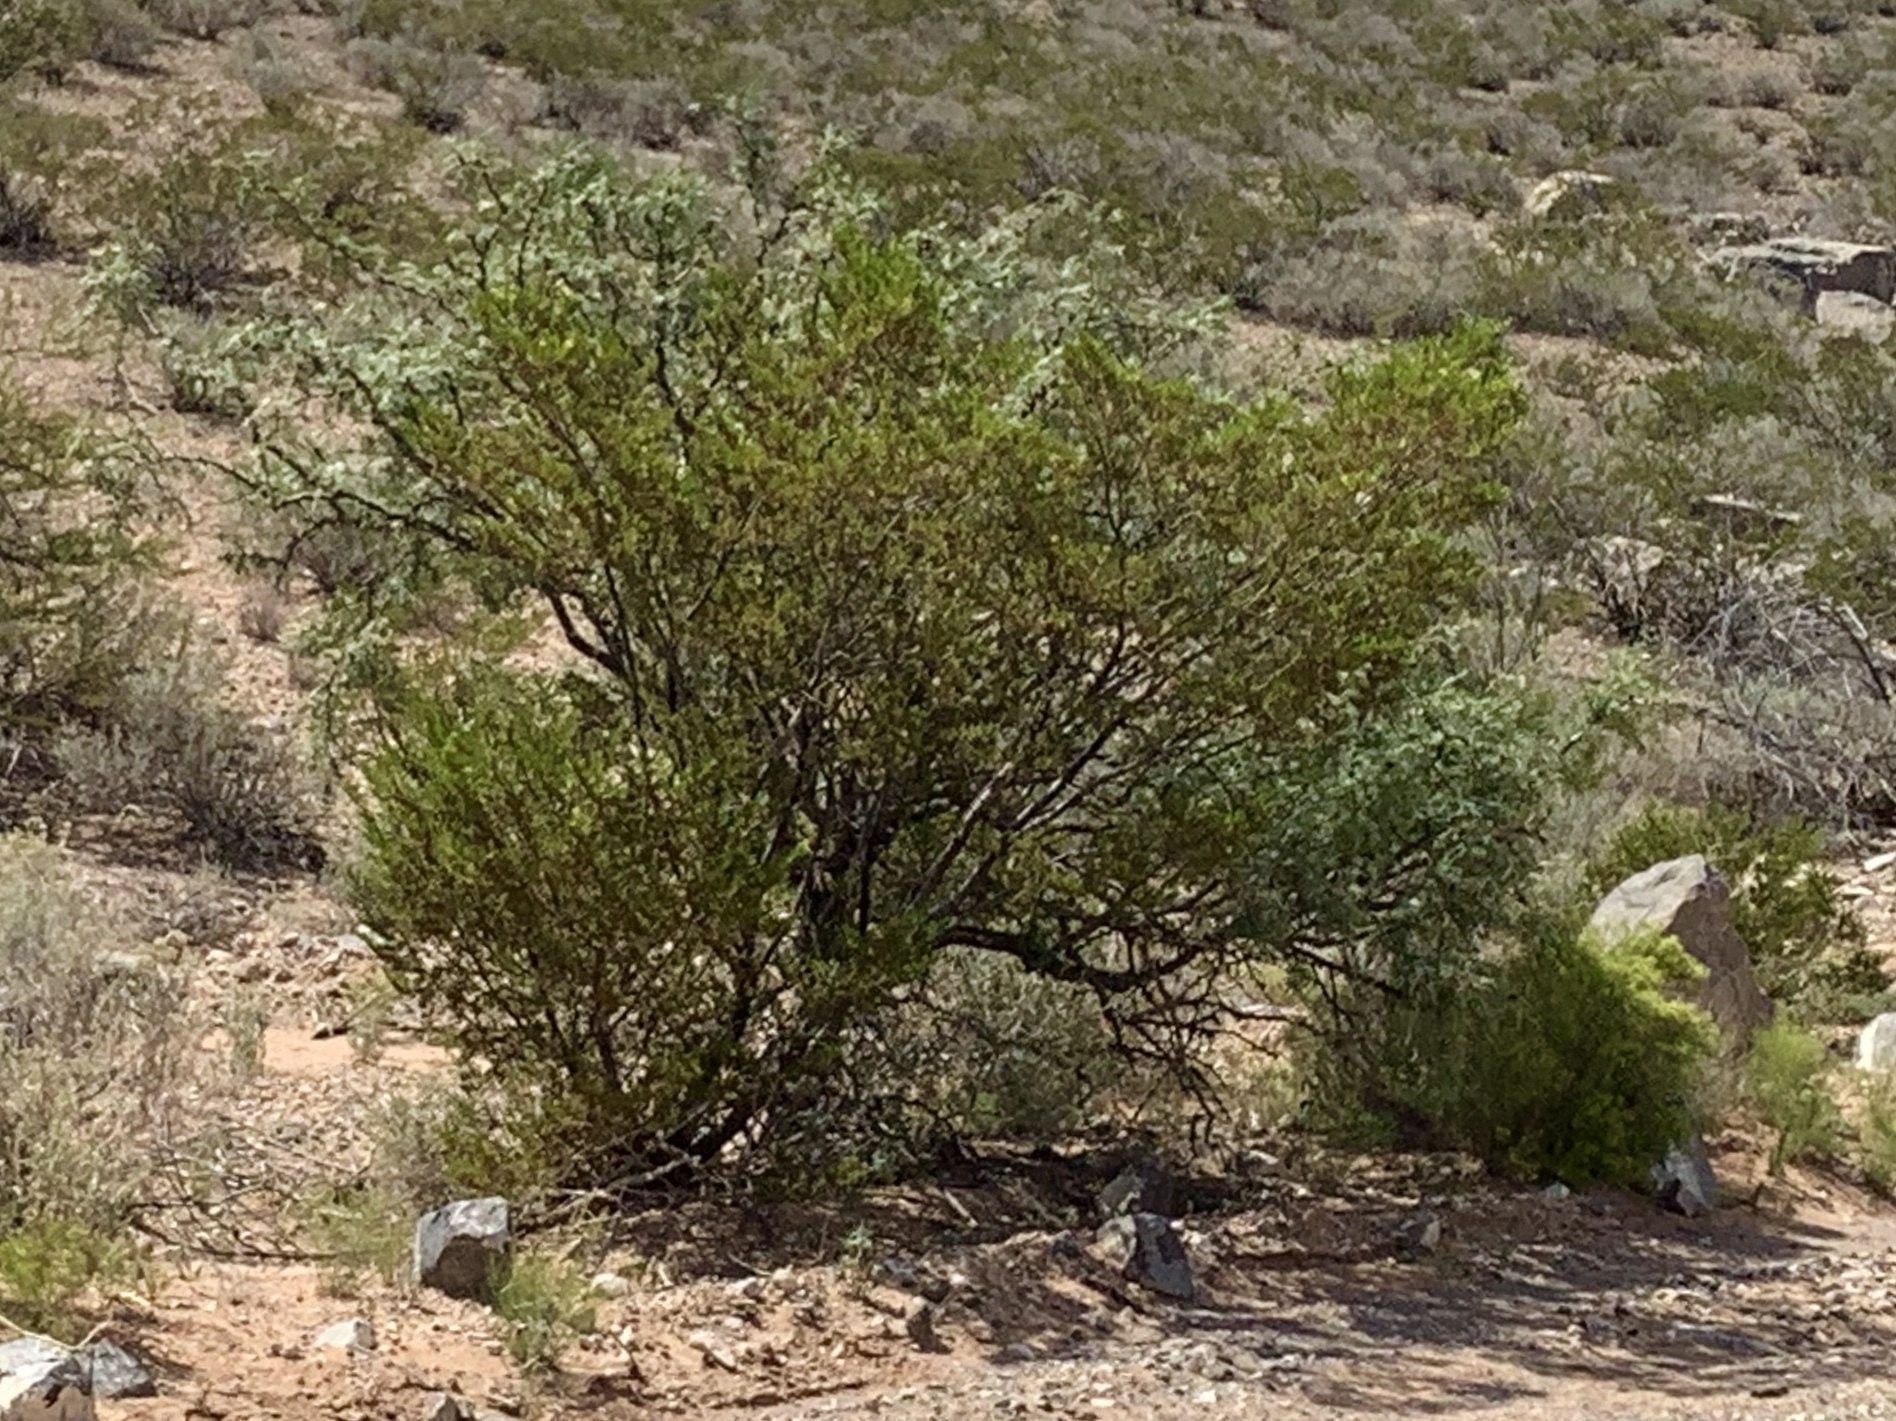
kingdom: Plantae
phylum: Tracheophyta
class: Magnoliopsida
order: Zygophyllales
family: Zygophyllaceae
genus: Larrea
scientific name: Larrea tridentata
